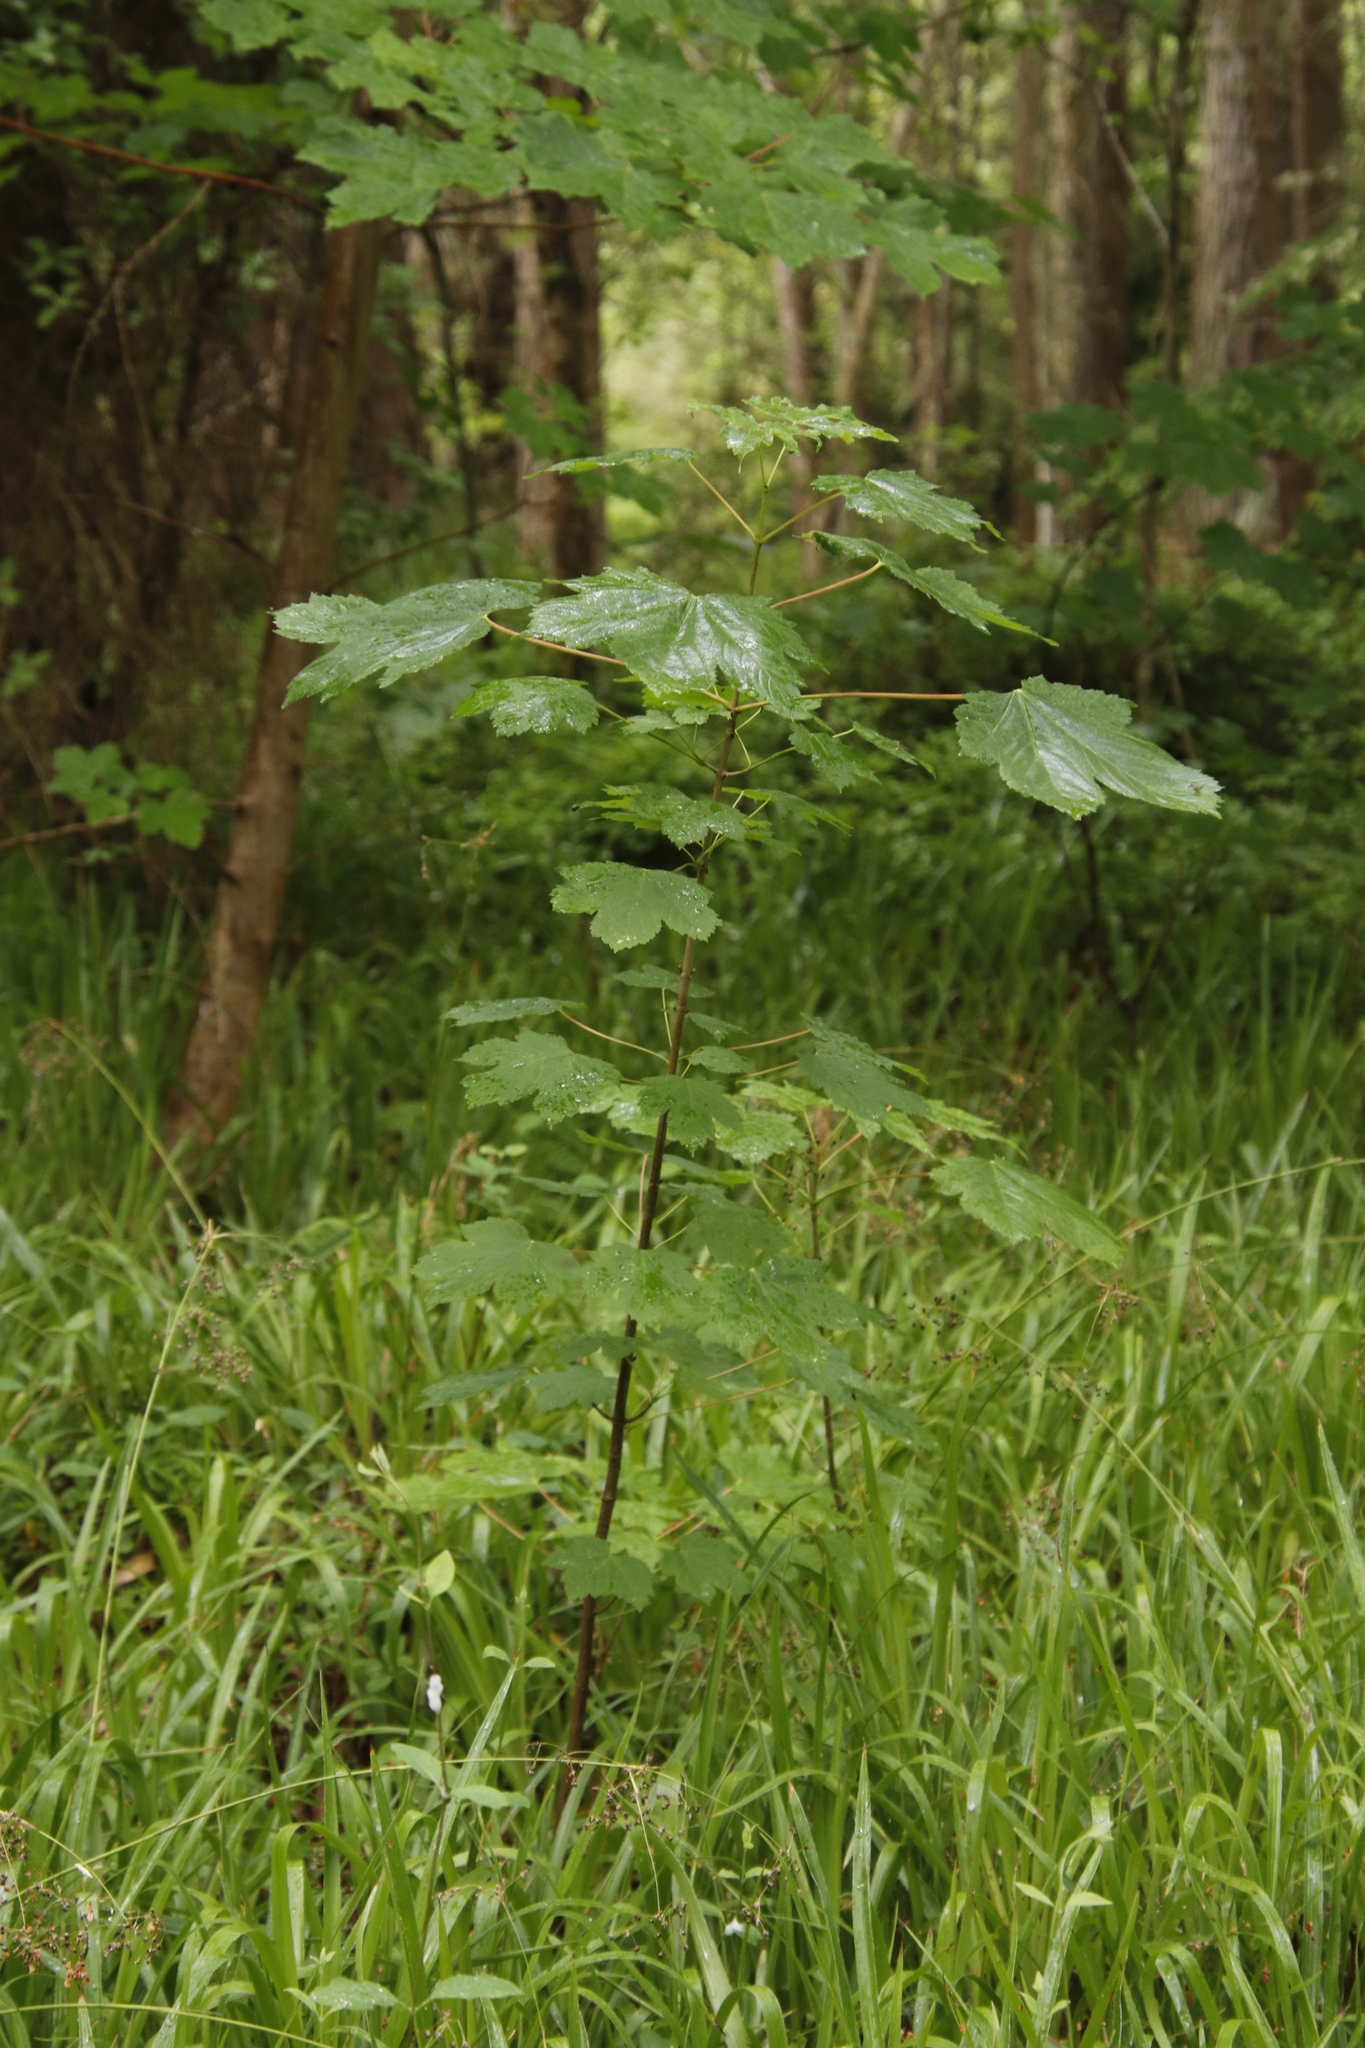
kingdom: Plantae
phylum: Tracheophyta
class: Magnoliopsida
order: Sapindales
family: Sapindaceae
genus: Acer
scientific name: Acer pseudoplatanus
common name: Sycamore
